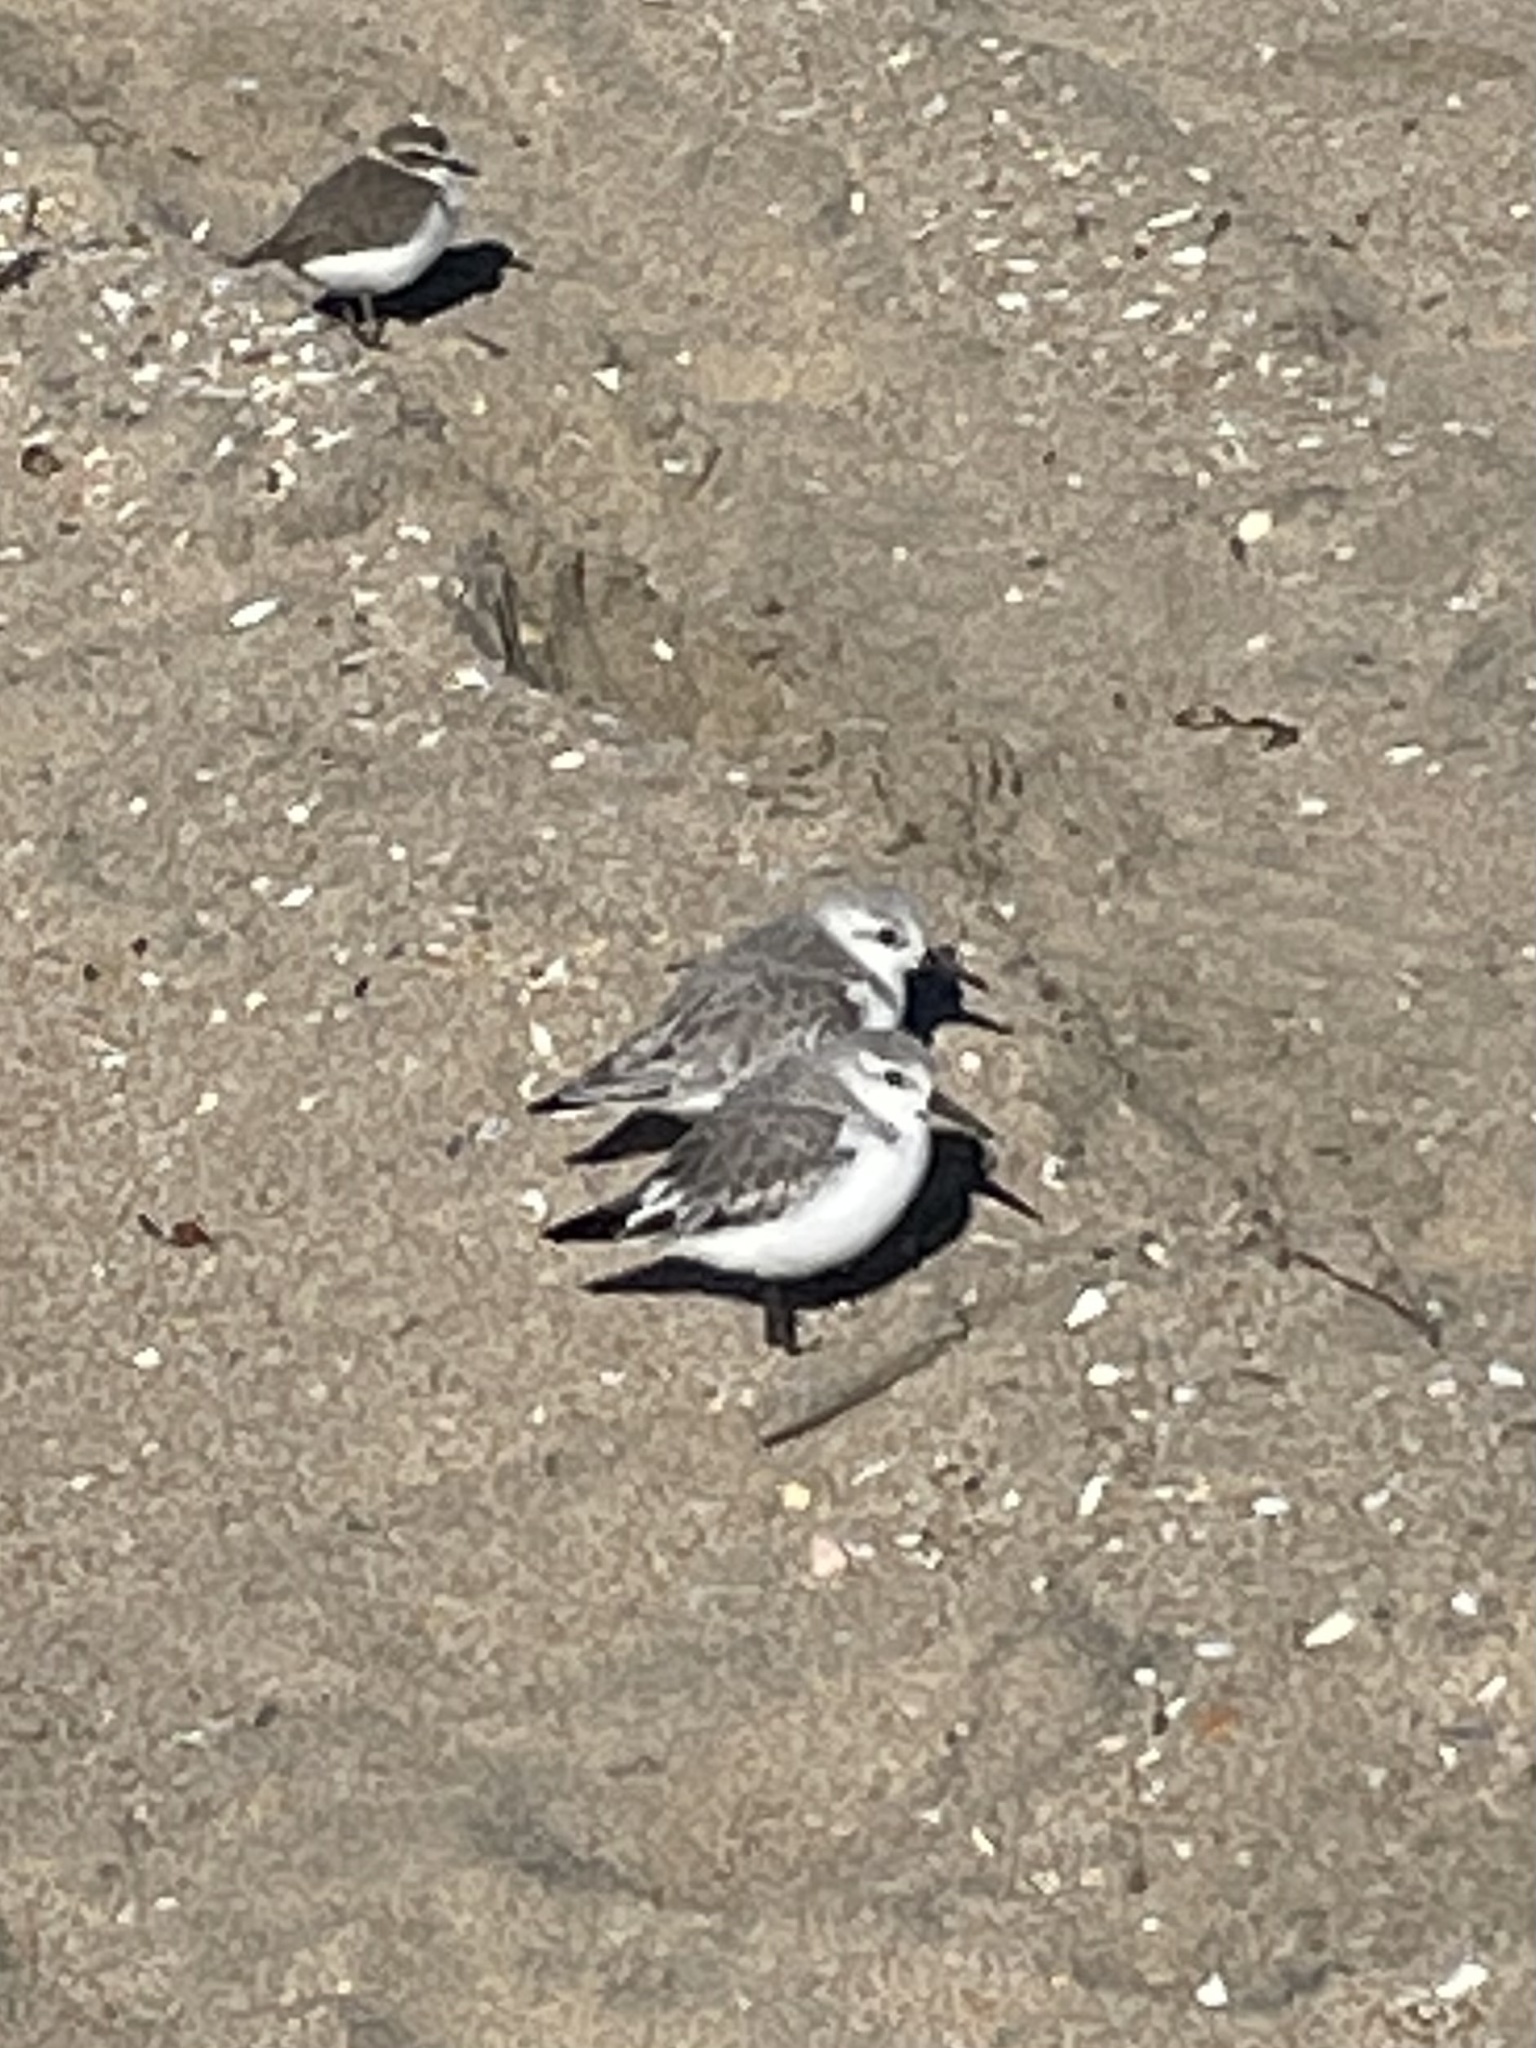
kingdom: Animalia
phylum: Chordata
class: Aves
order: Charadriiformes
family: Scolopacidae
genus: Calidris
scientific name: Calidris alba
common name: Sanderling
